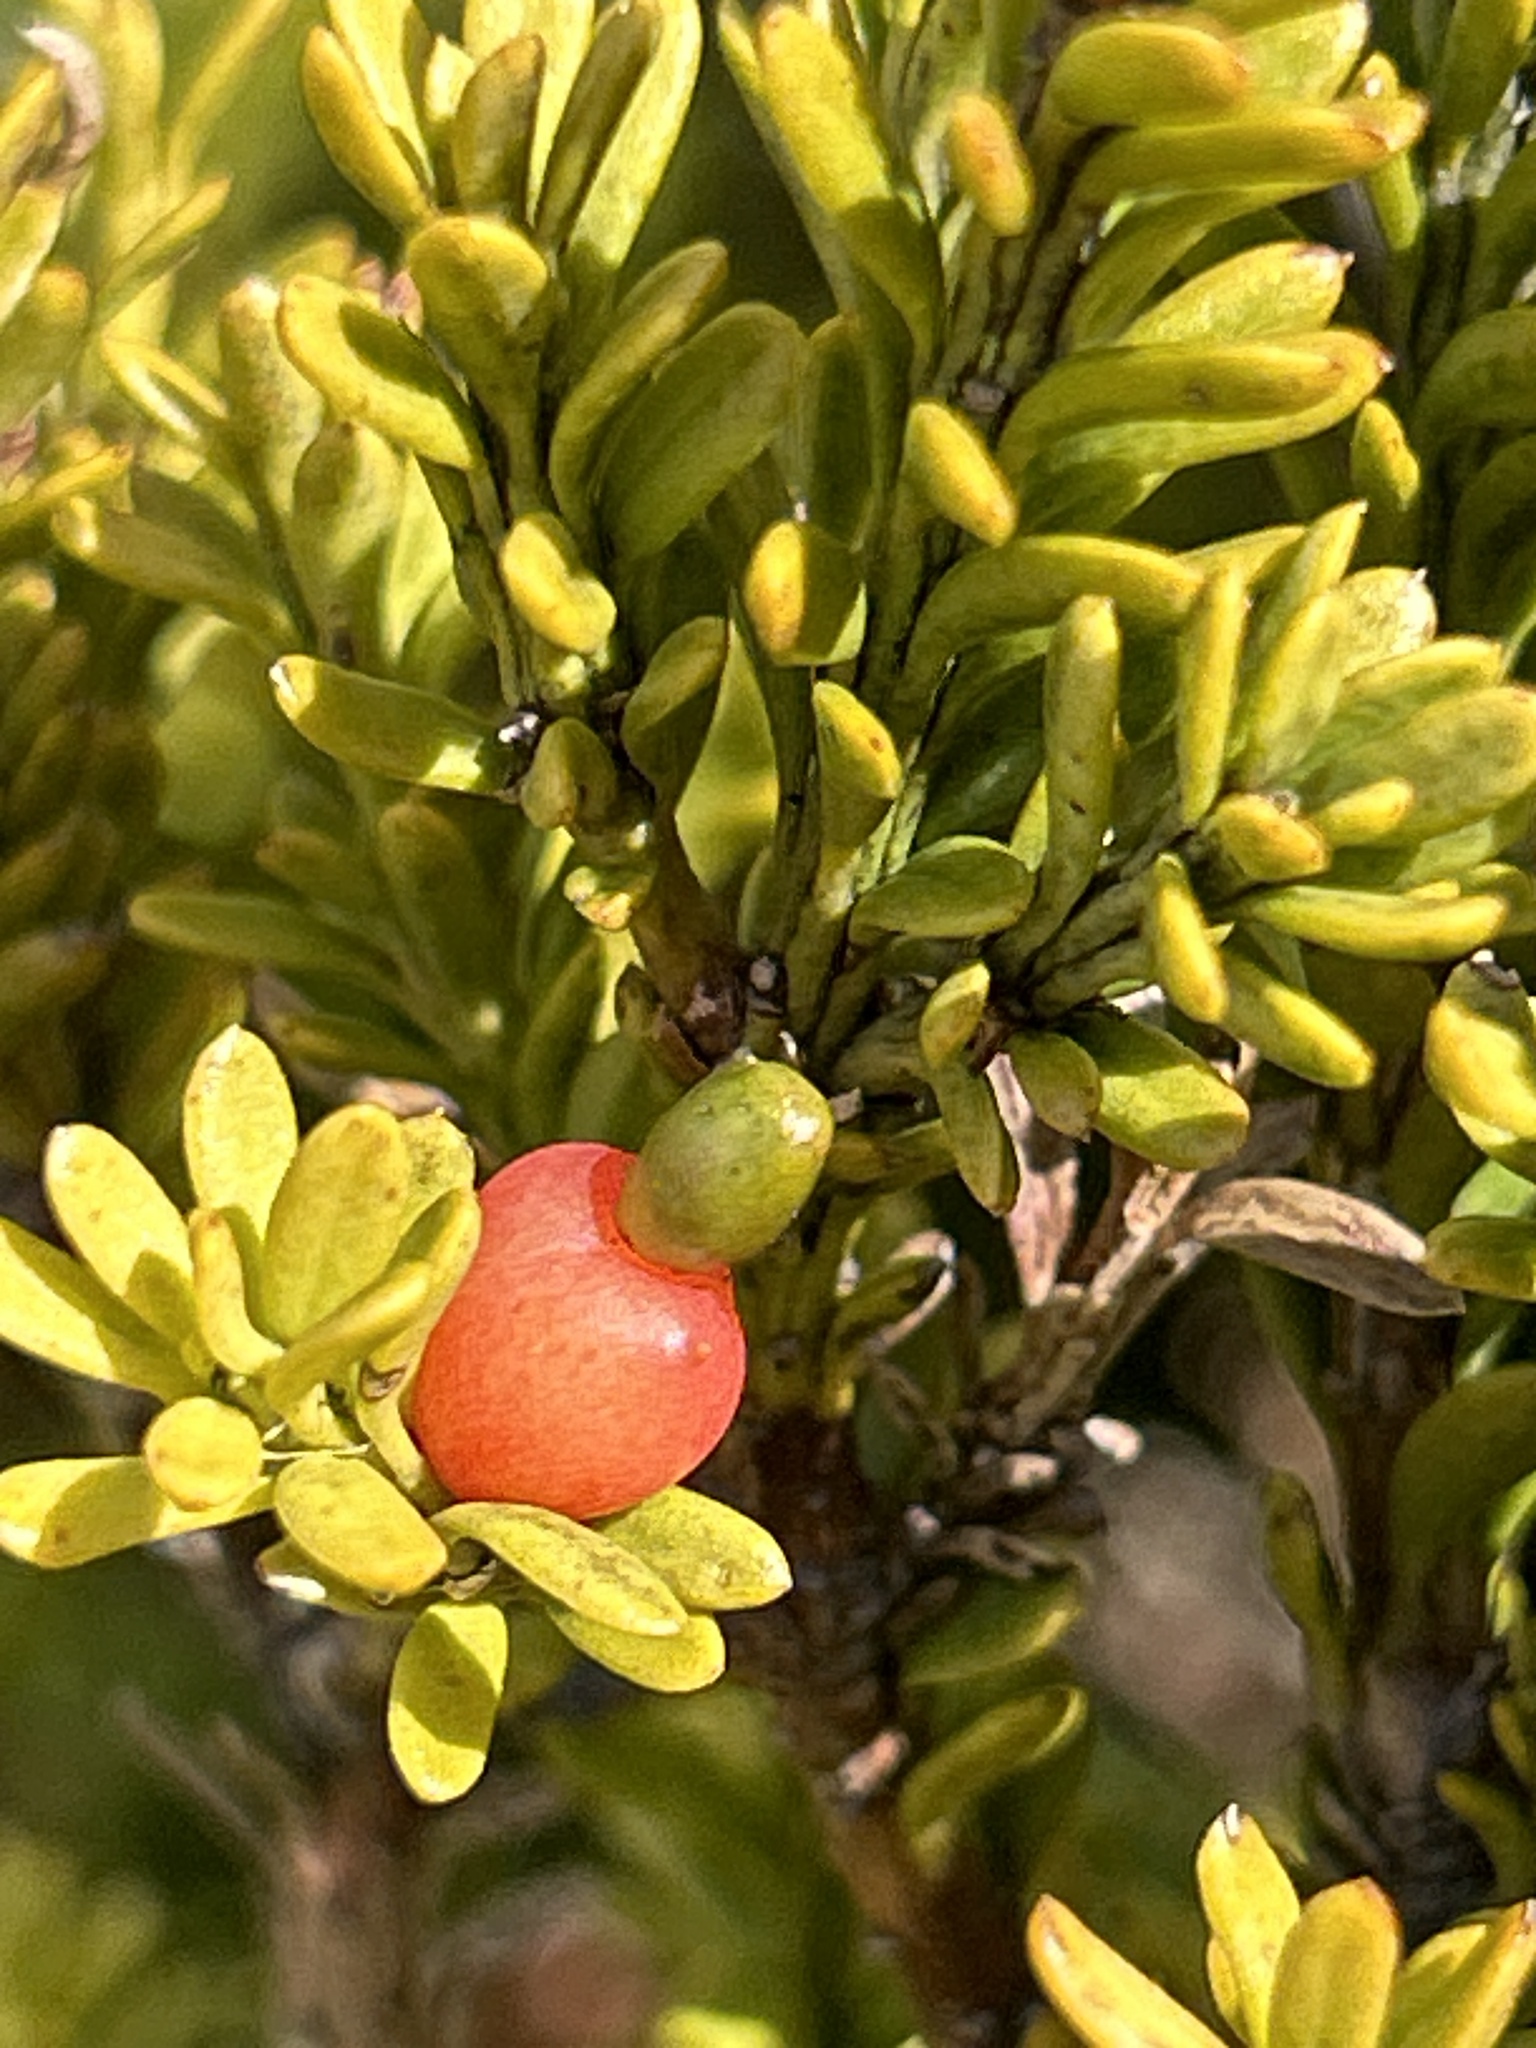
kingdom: Plantae
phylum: Tracheophyta
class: Pinopsida
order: Pinales
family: Podocarpaceae
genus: Podocarpus
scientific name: Podocarpus nivalis
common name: Alpine totara
